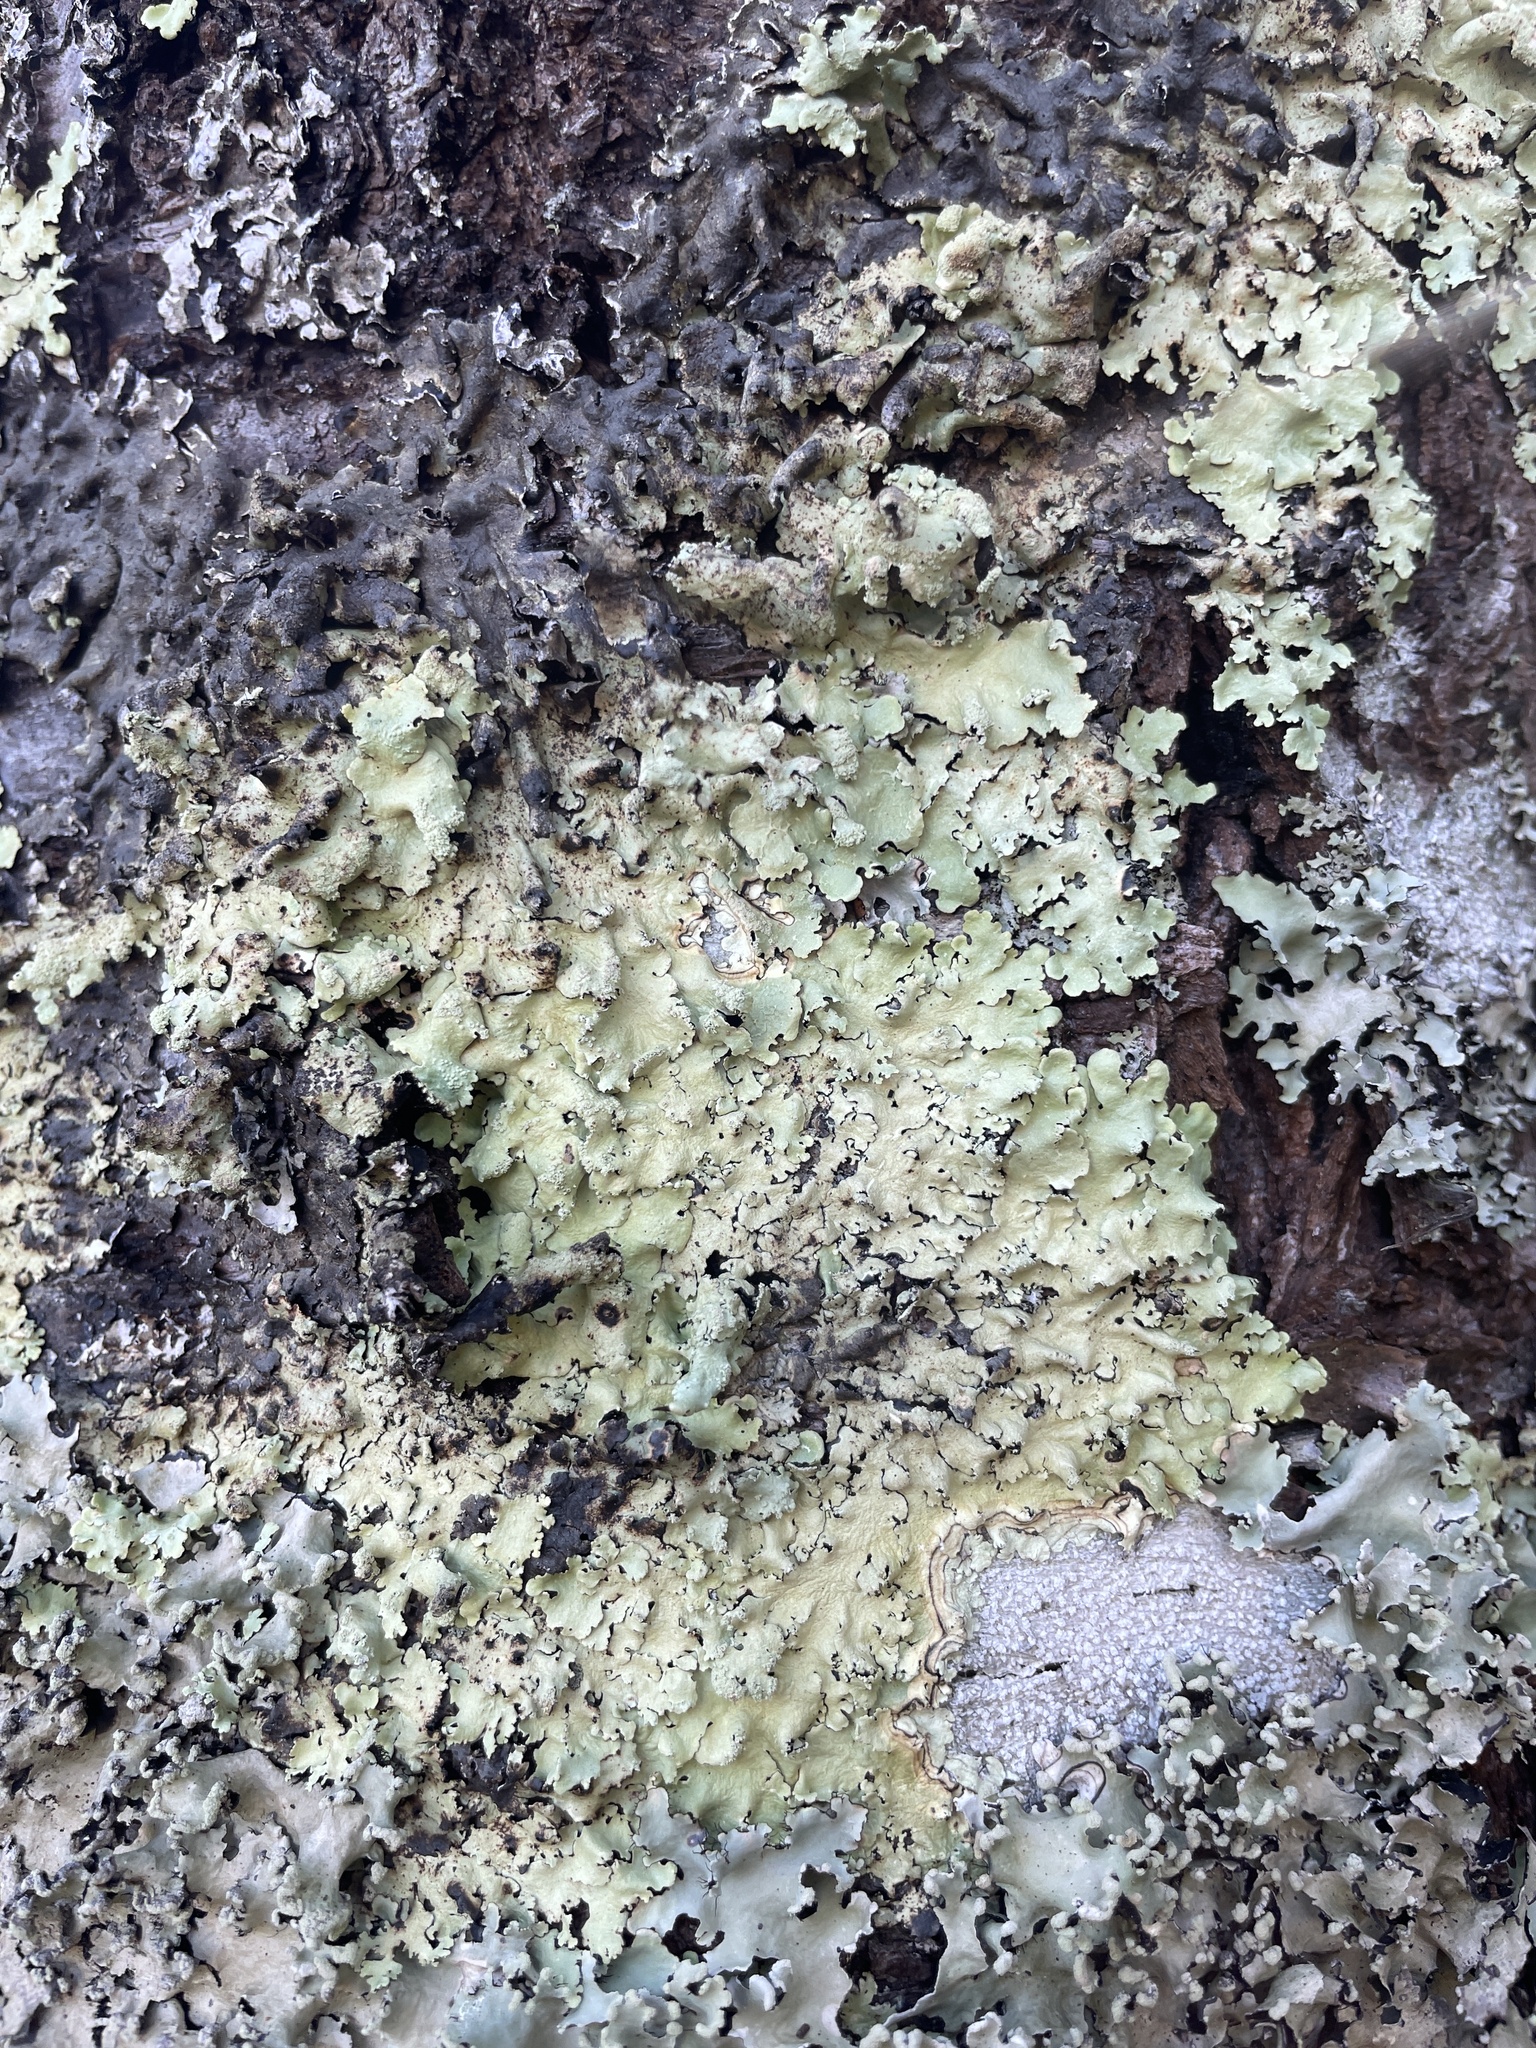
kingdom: Fungi
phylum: Ascomycota
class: Lecanoromycetes
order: Lecanorales
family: Parmeliaceae
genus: Flavoparmelia
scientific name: Flavoparmelia caperata
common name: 40-mile per hour lichen
